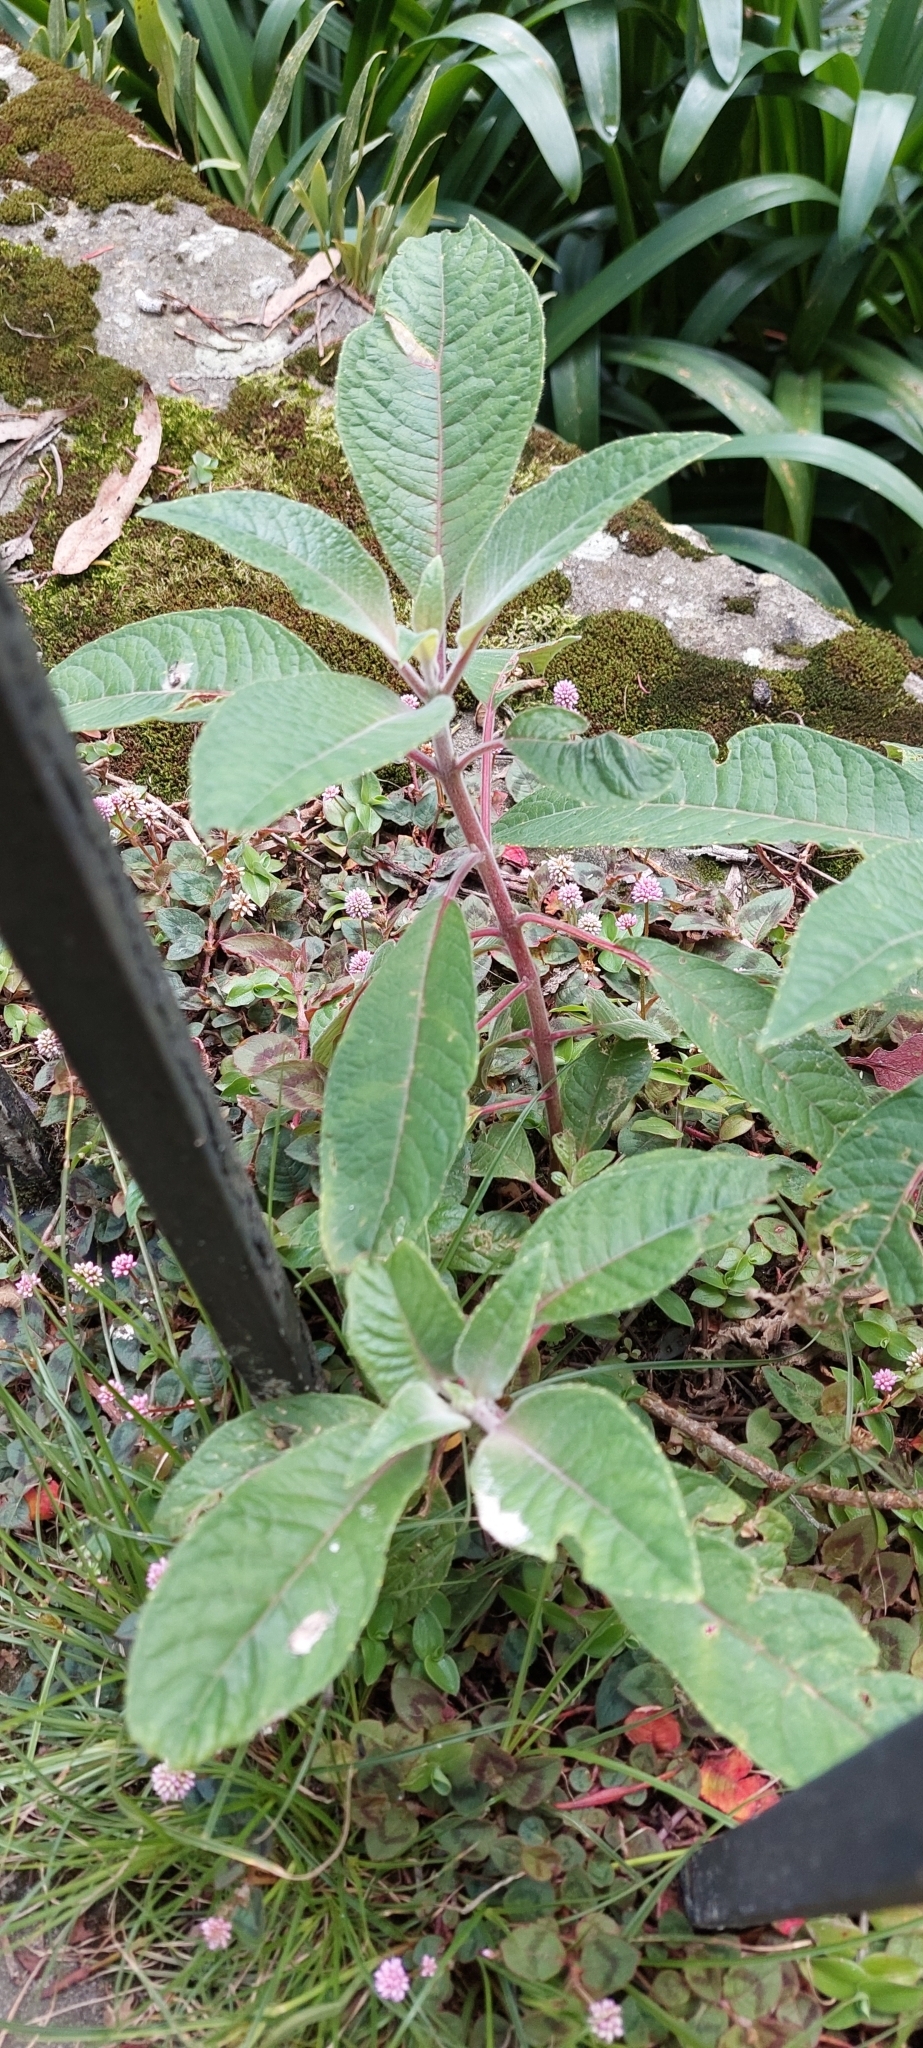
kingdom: Plantae
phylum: Tracheophyta
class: Magnoliopsida
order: Myrtales
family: Onagraceae
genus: Fuchsia
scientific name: Fuchsia boliviana
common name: Bolivian fuchsia
